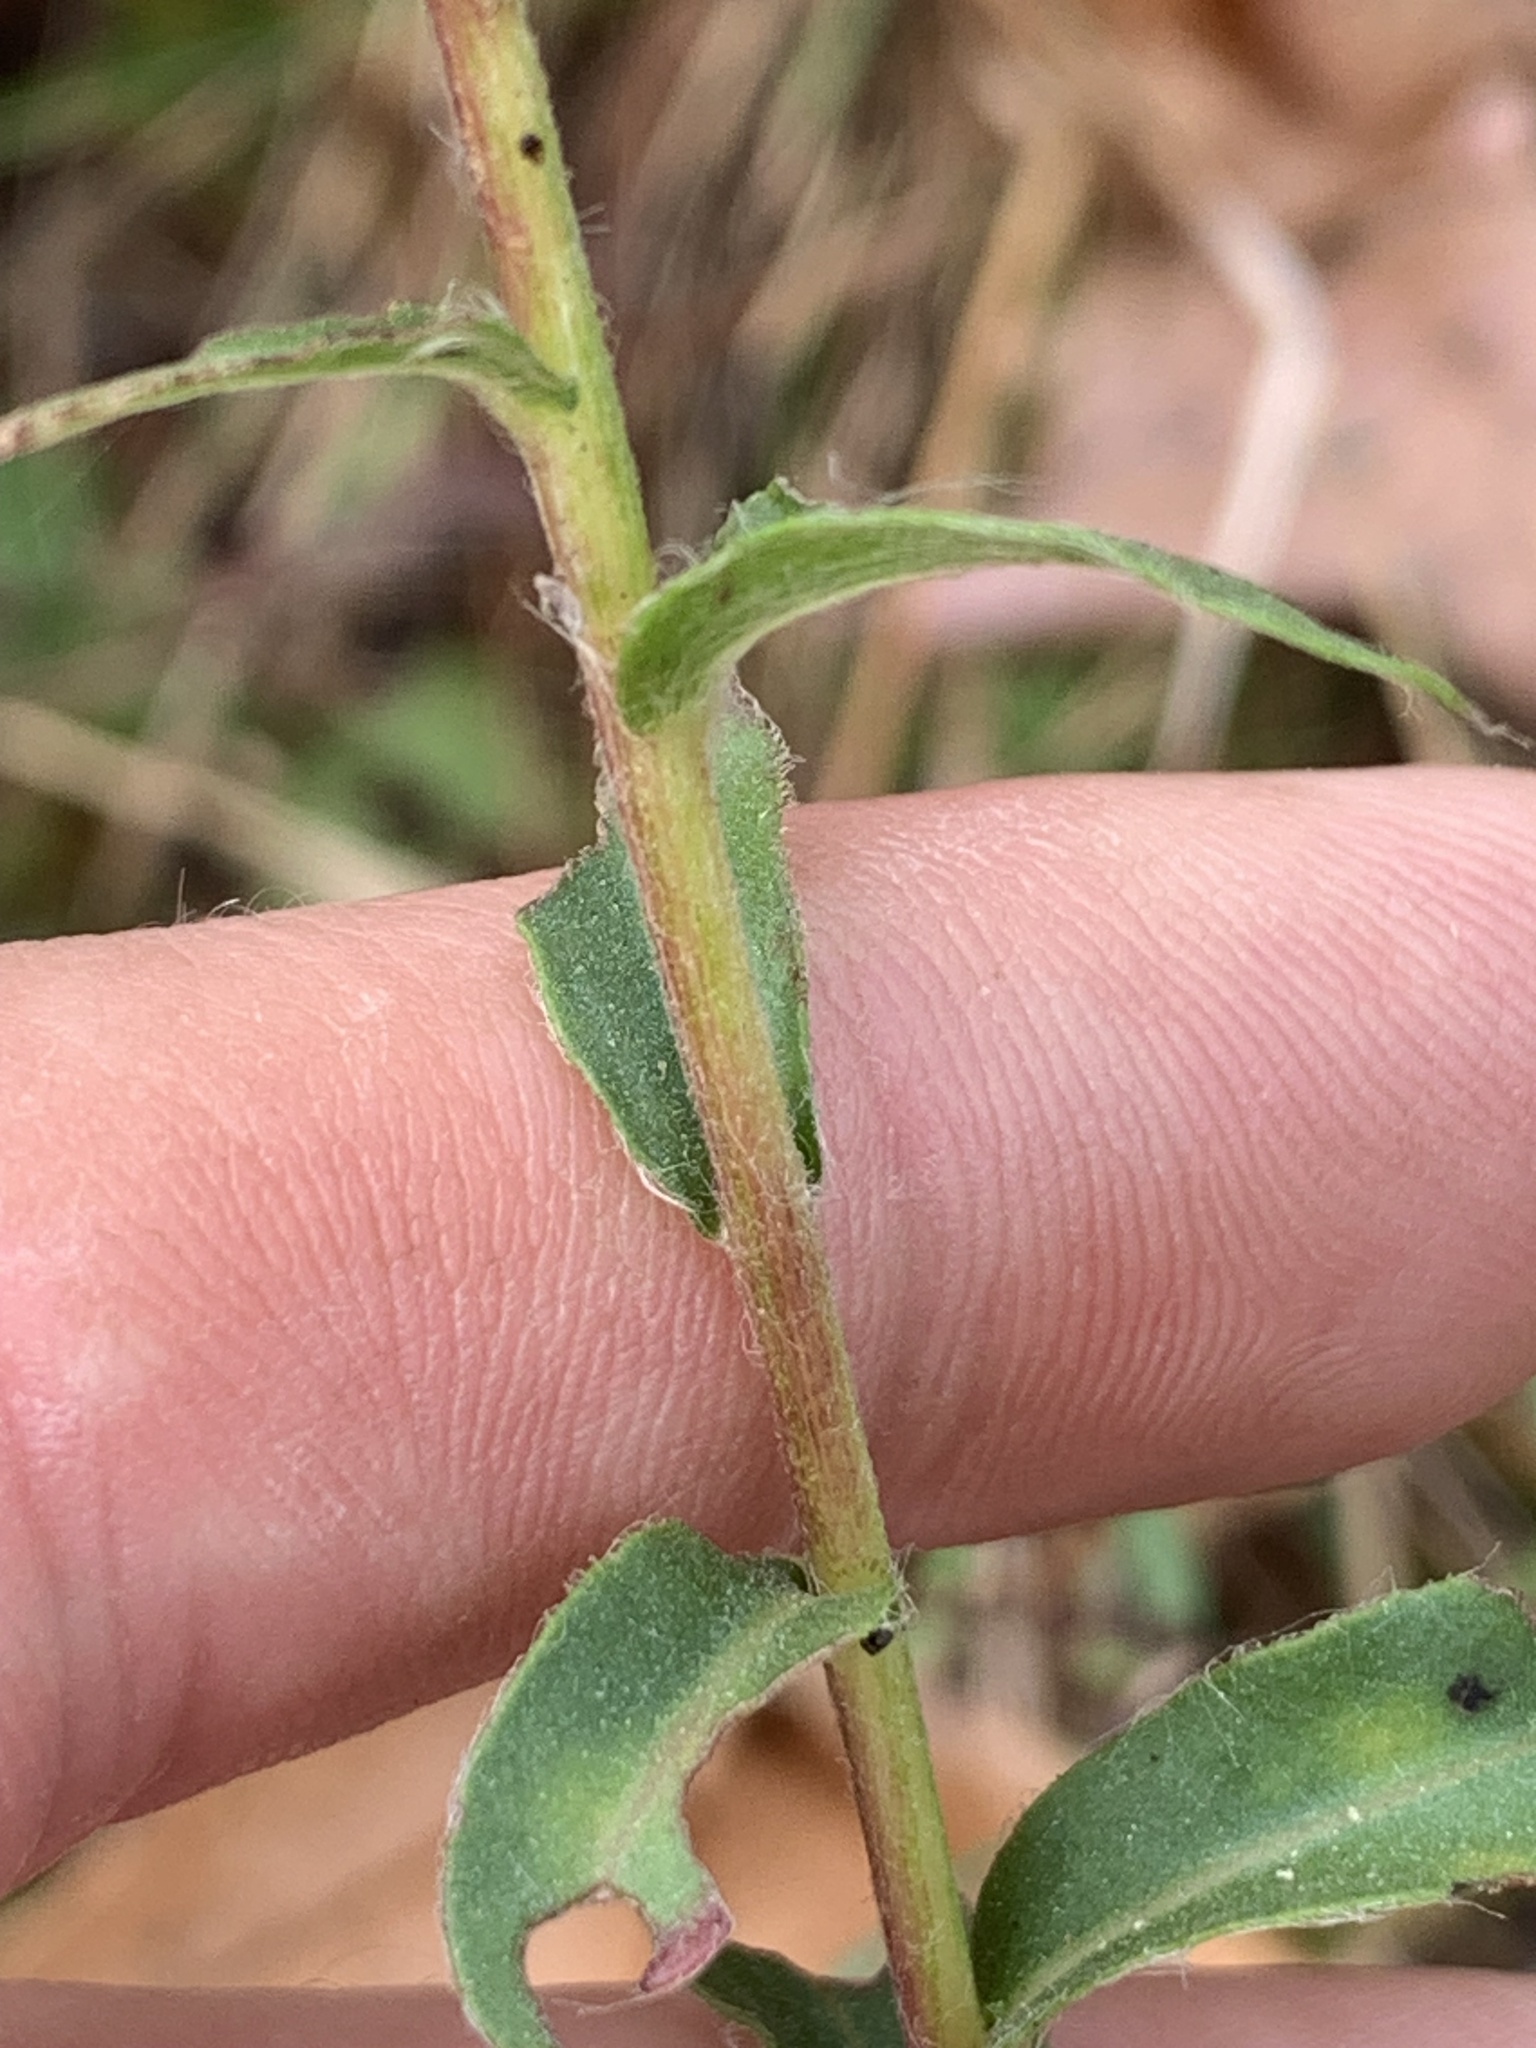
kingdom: Plantae
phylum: Tracheophyta
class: Magnoliopsida
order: Asterales
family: Asteraceae
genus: Pityopsis
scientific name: Pityopsis aspera
